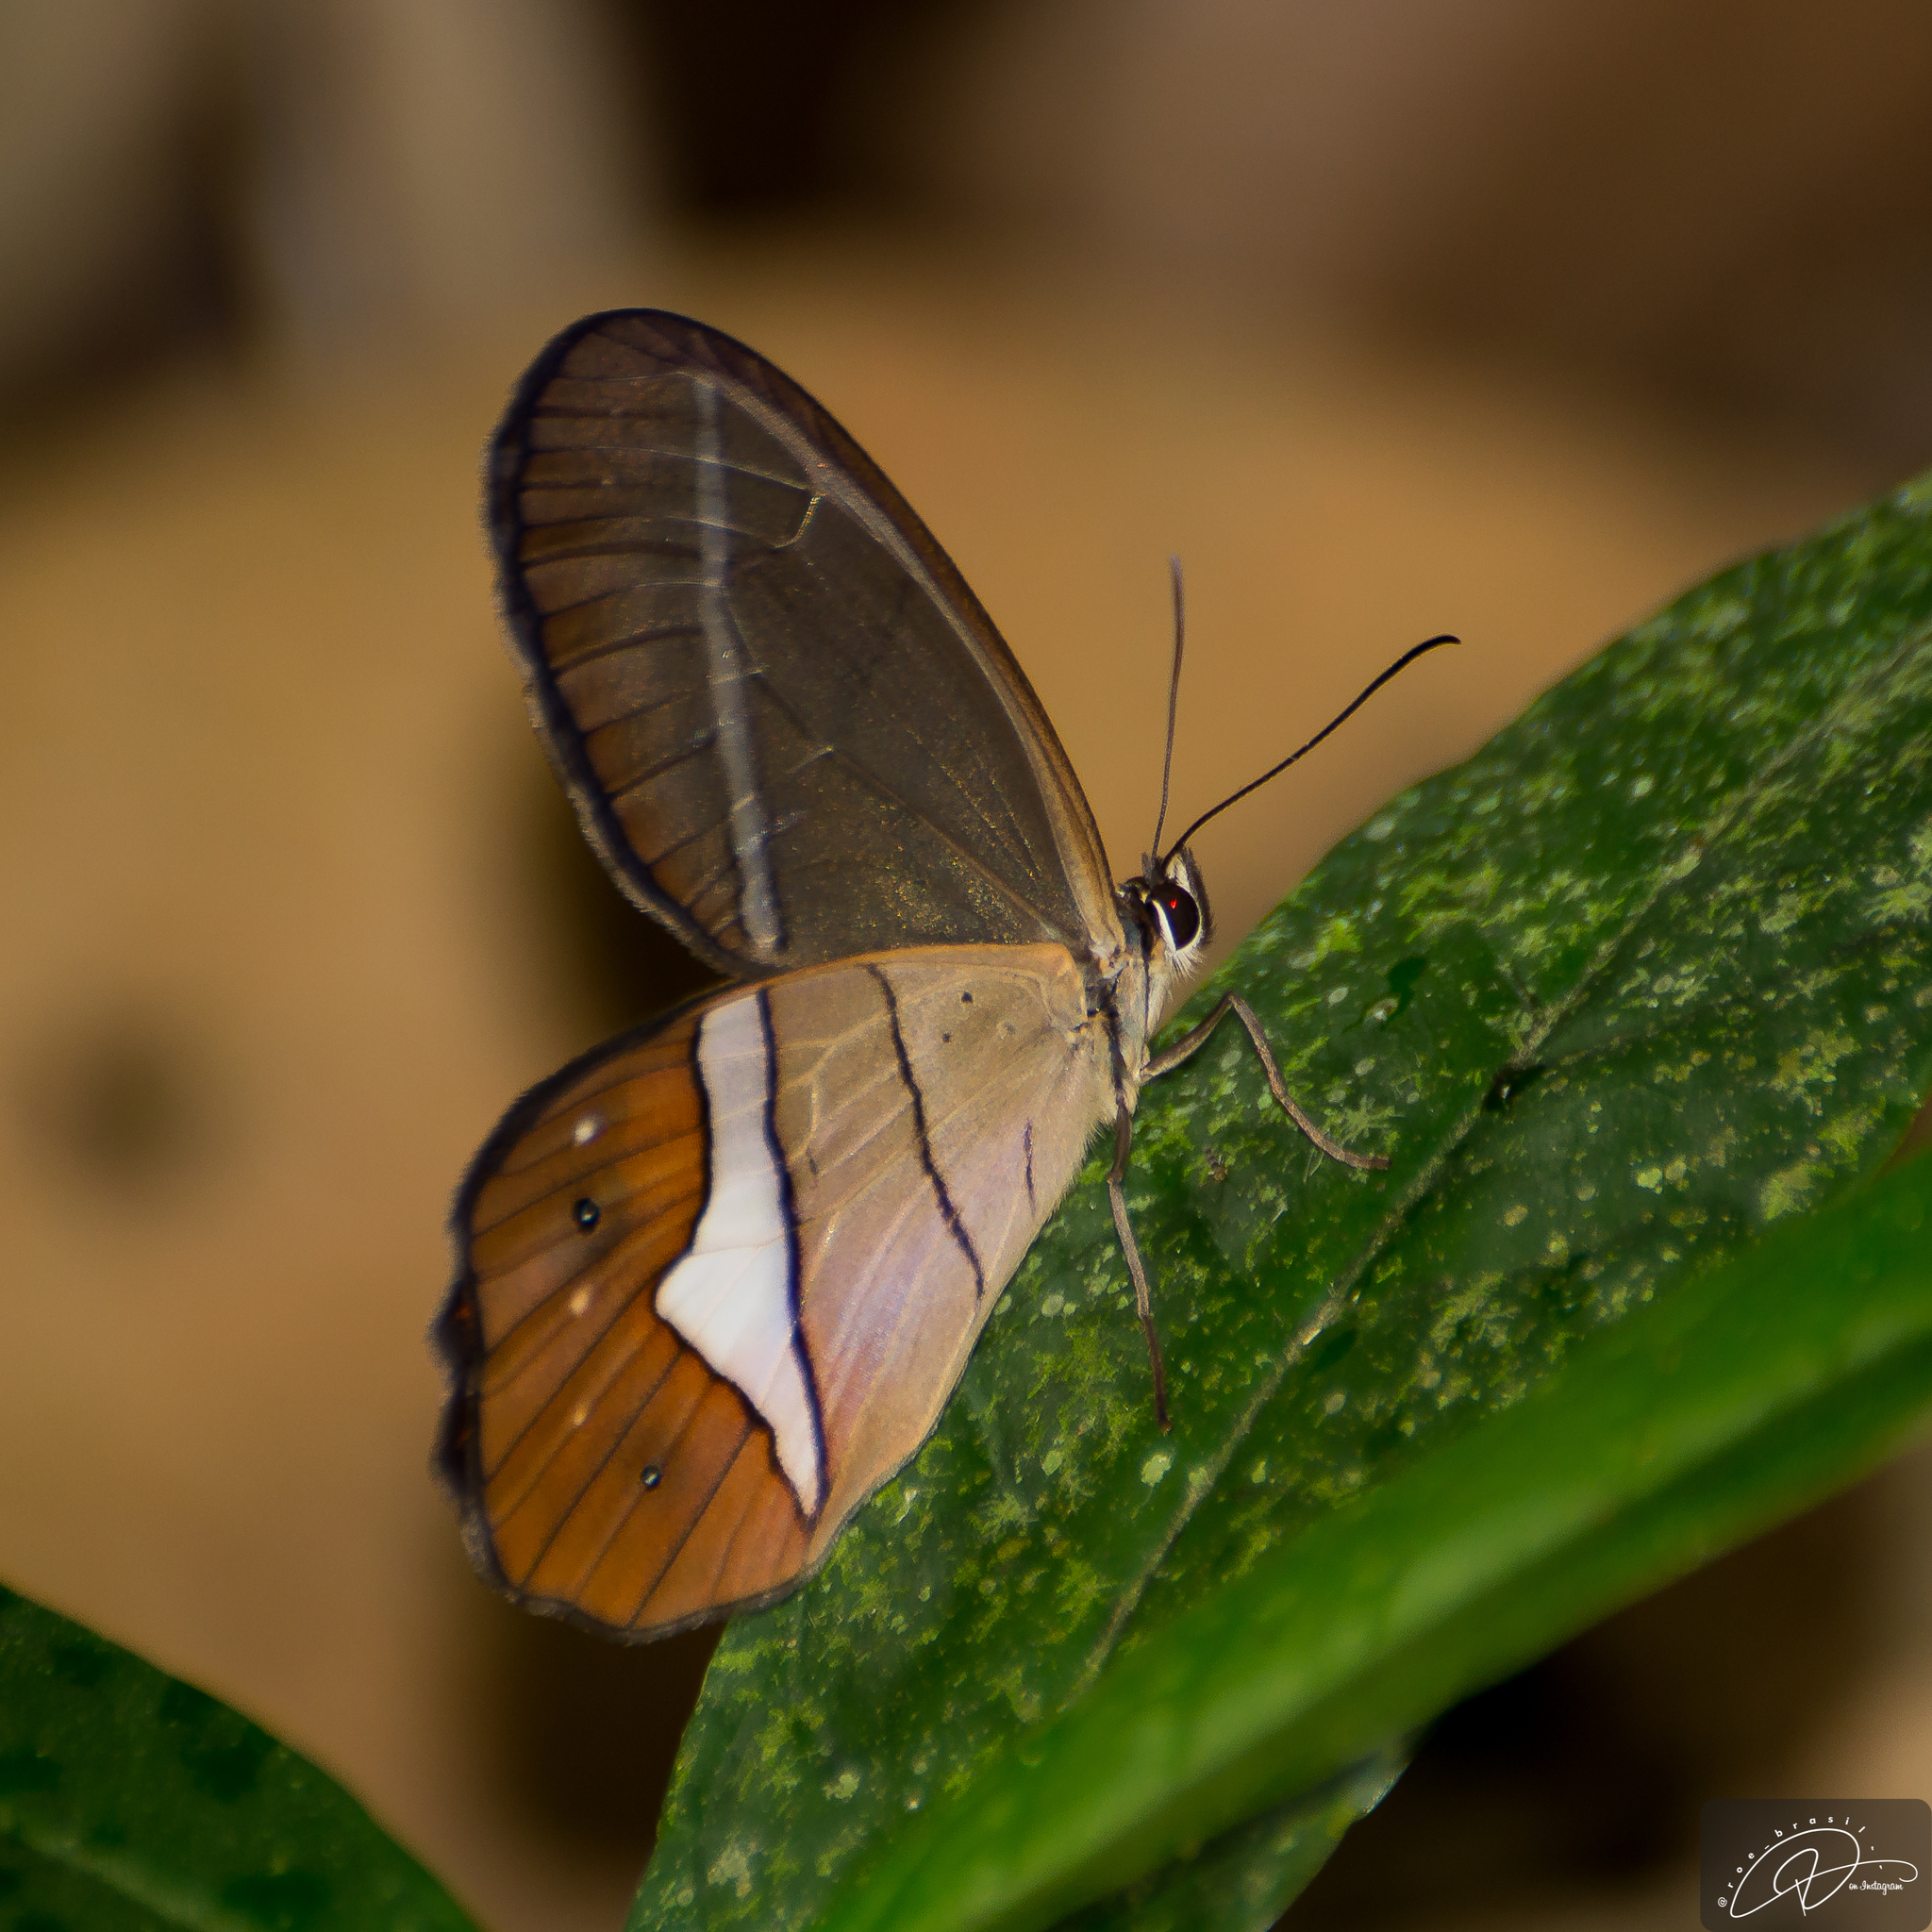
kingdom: Animalia
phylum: Arthropoda
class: Insecta
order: Lepidoptera
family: Nymphalidae
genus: Pierella
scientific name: Pierella nereis
